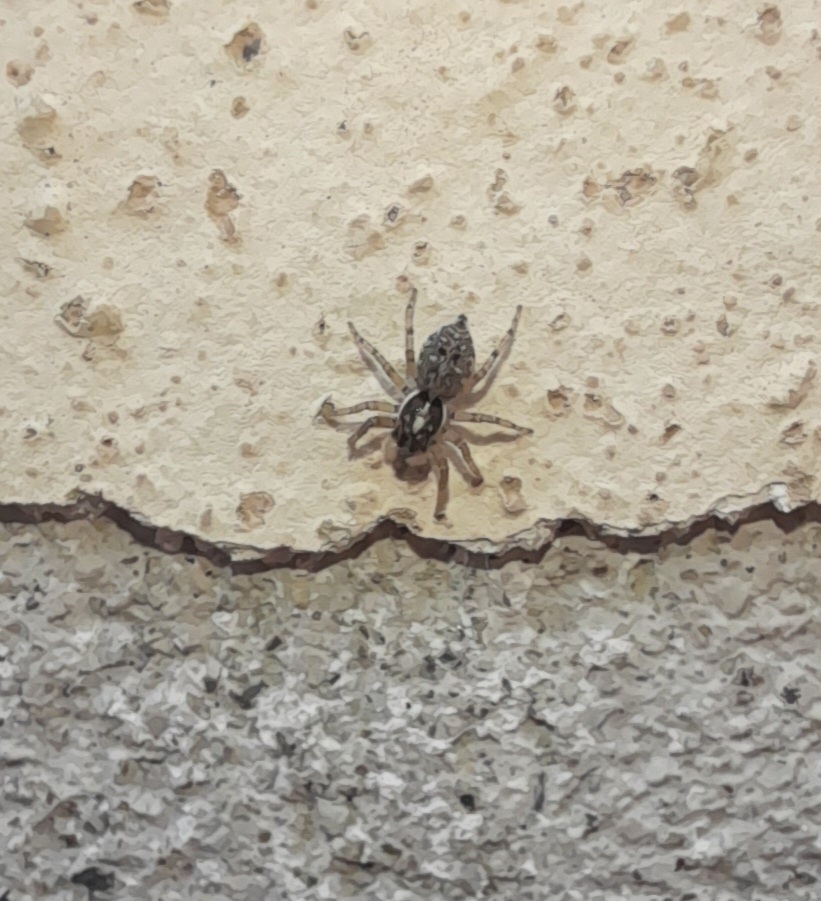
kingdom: Animalia
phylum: Arthropoda
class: Arachnida
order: Araneae
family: Salticidae
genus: Menemerus
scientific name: Menemerus semilimbatus
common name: Jumping spider
